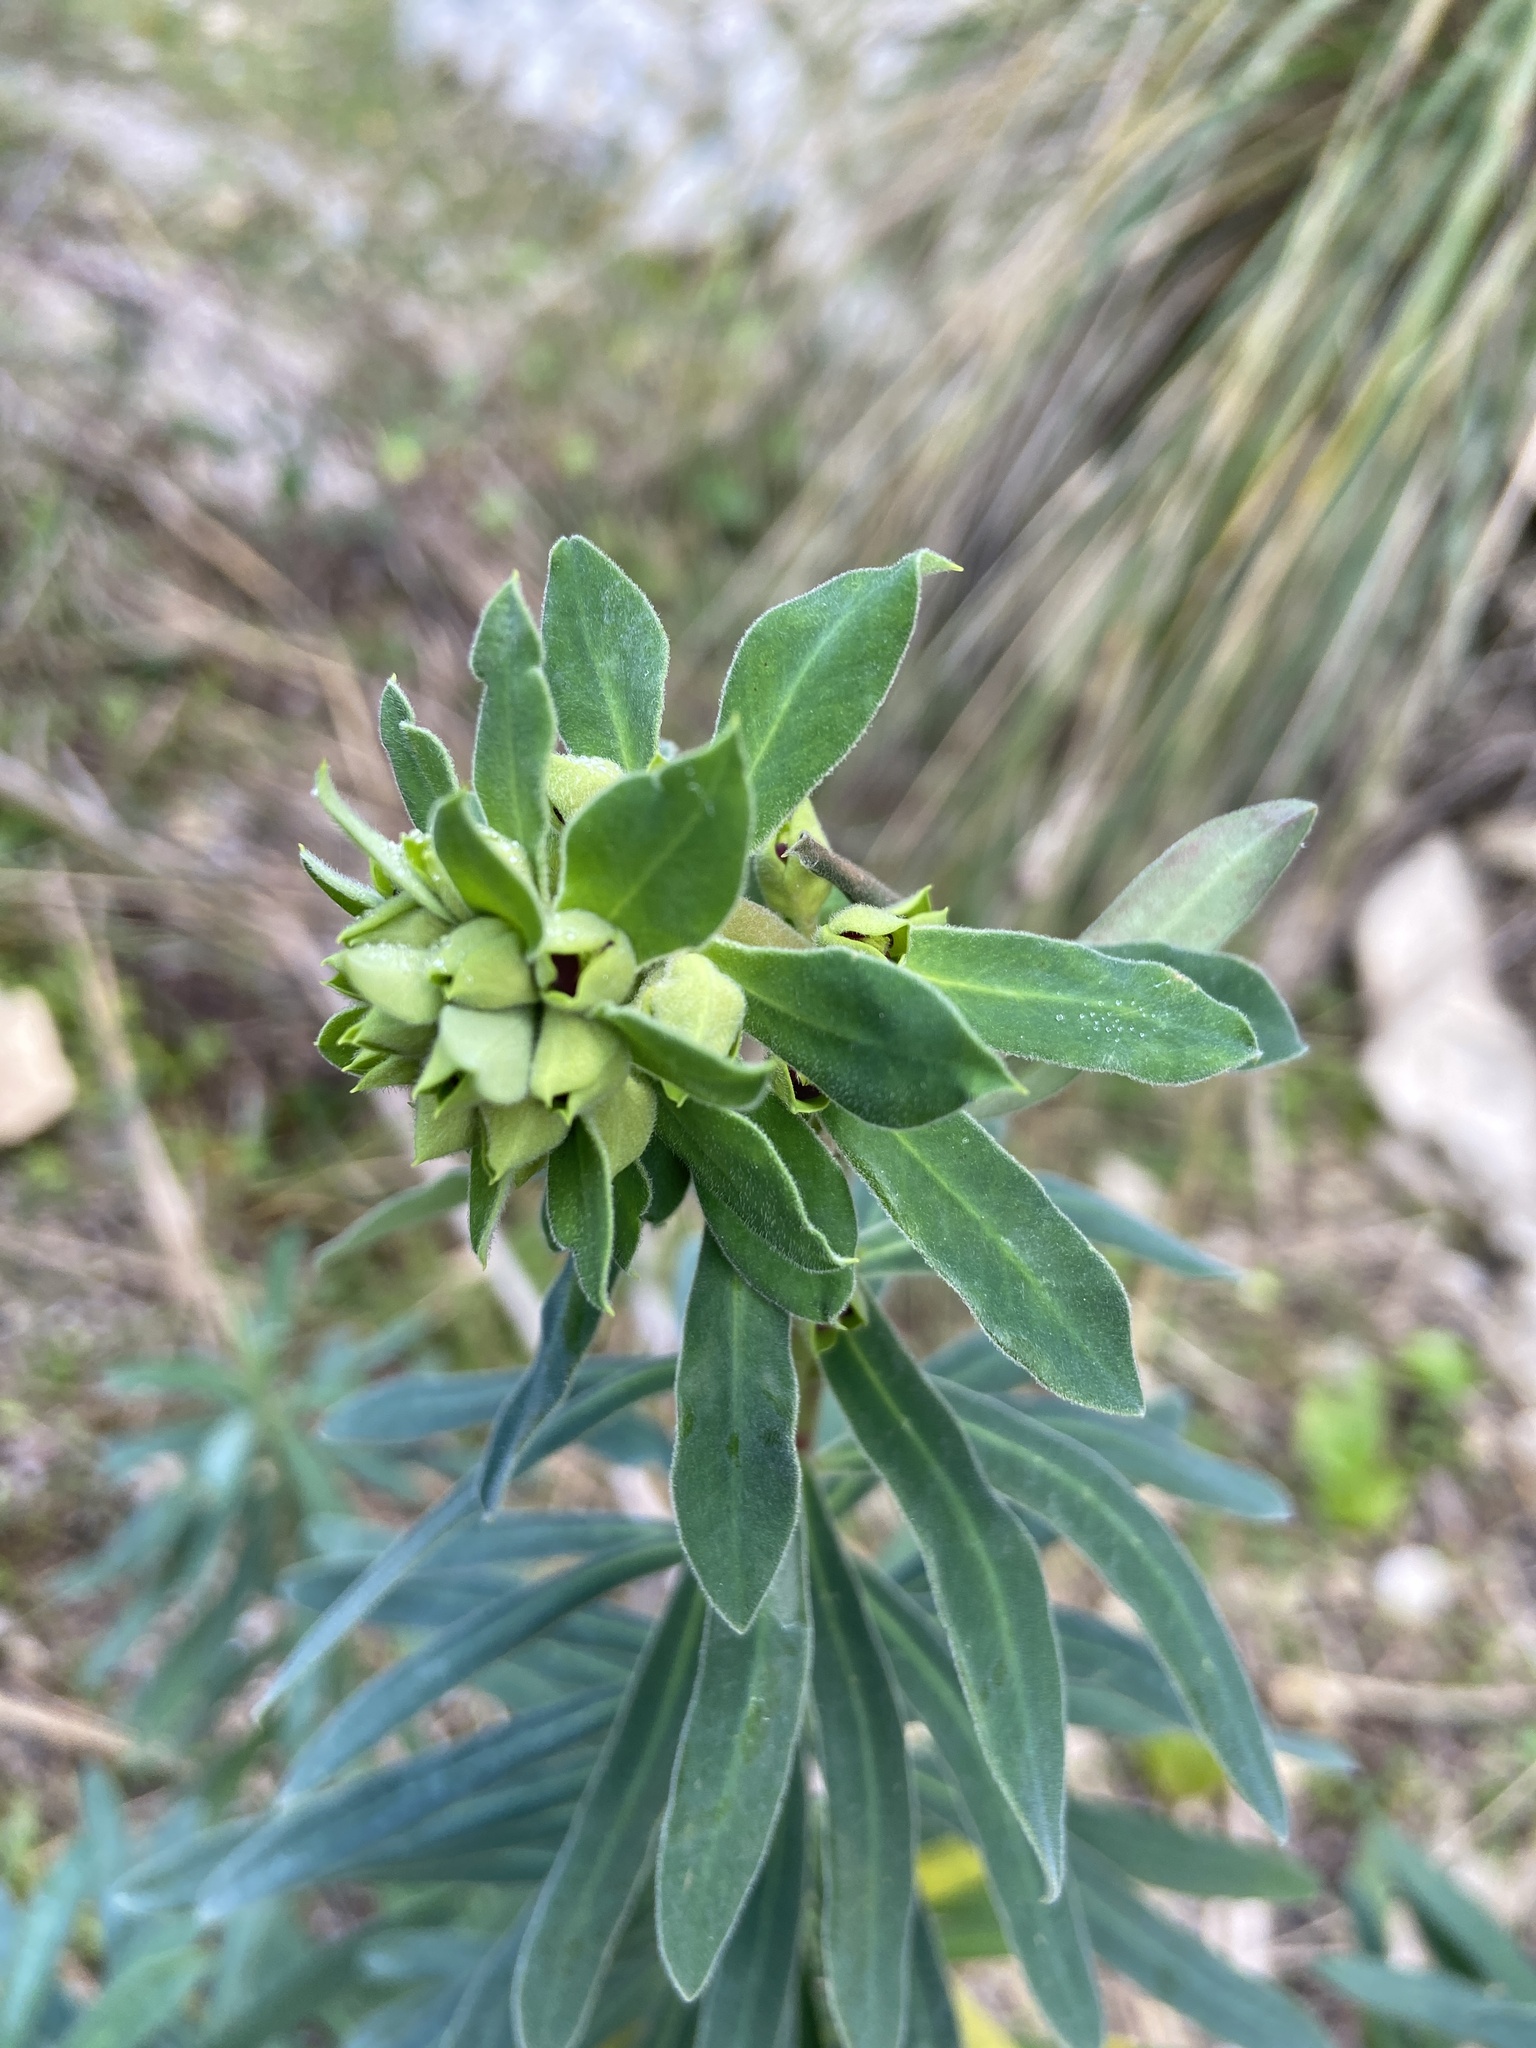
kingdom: Plantae
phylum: Tracheophyta
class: Magnoliopsida
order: Malpighiales
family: Euphorbiaceae
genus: Euphorbia
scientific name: Euphorbia characias
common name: Mediterranean spurge
